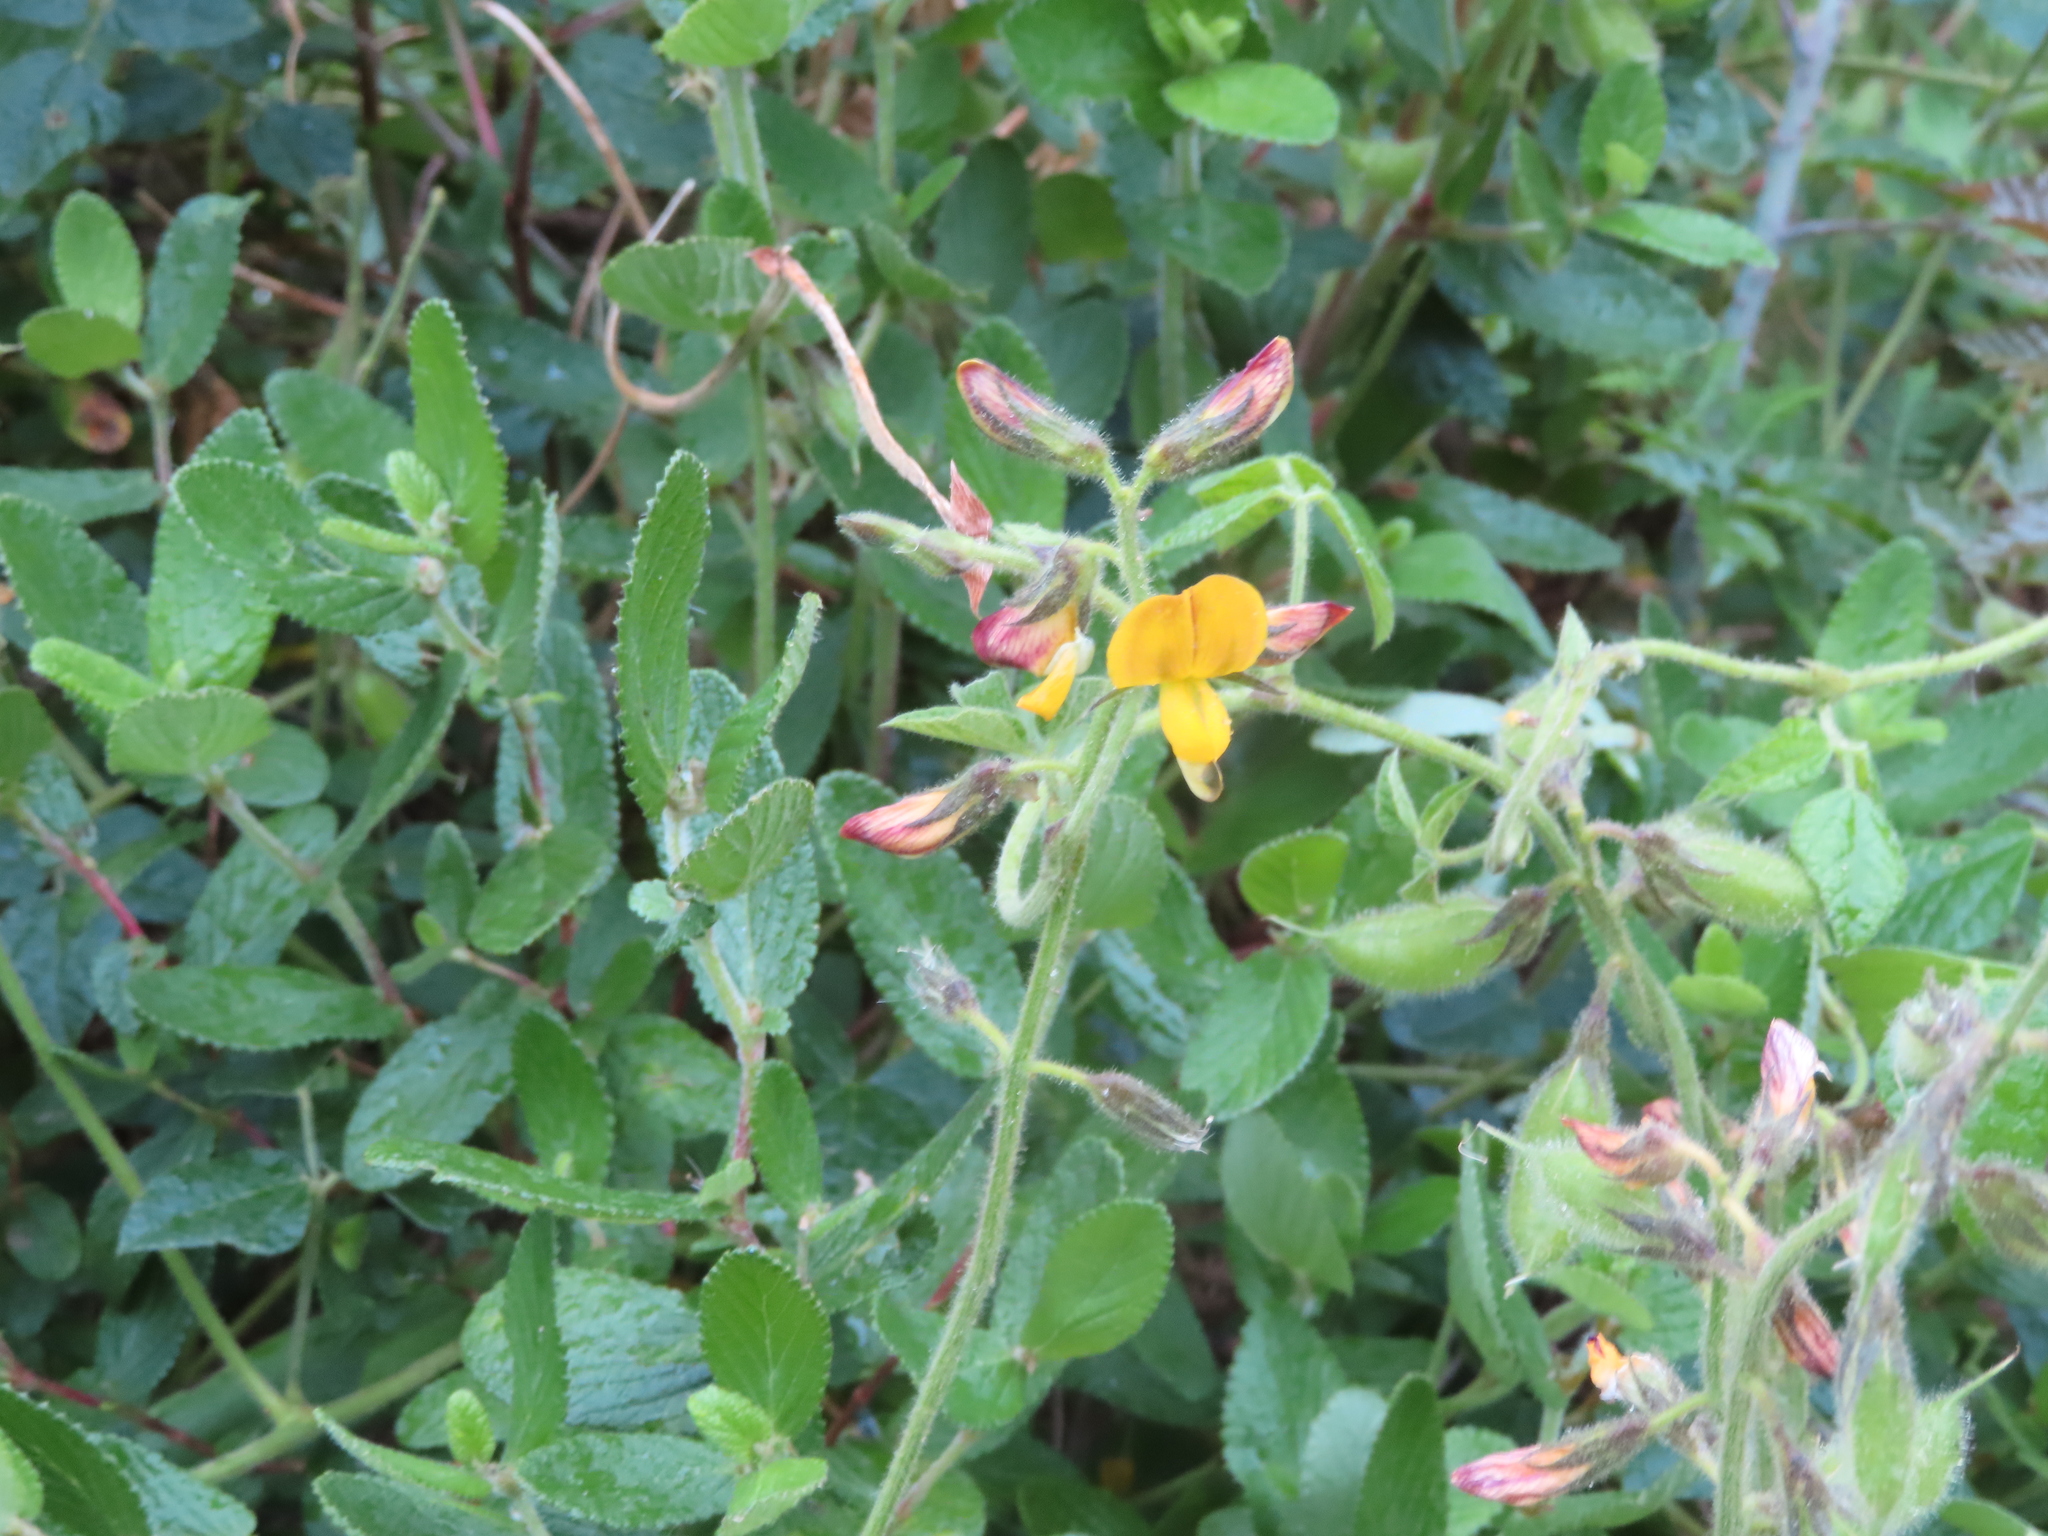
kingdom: Plantae
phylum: Tracheophyta
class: Magnoliopsida
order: Fabales
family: Fabaceae
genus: Bolusafra
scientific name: Bolusafra bituminosa
